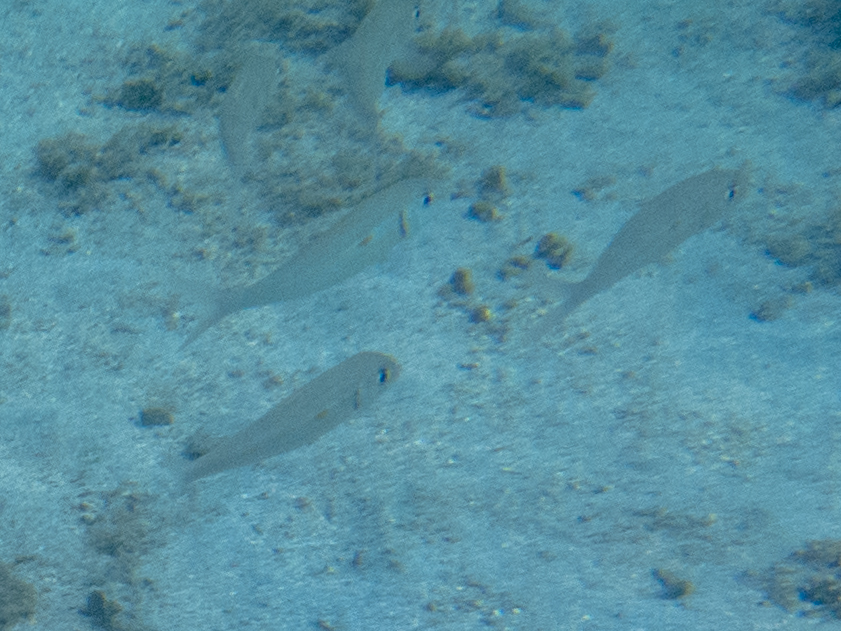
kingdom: Animalia
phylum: Chordata
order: Perciformes
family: Mullidae
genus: Mulloidichthys
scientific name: Mulloidichthys flavolineatus
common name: Yellowstripe goatfish
